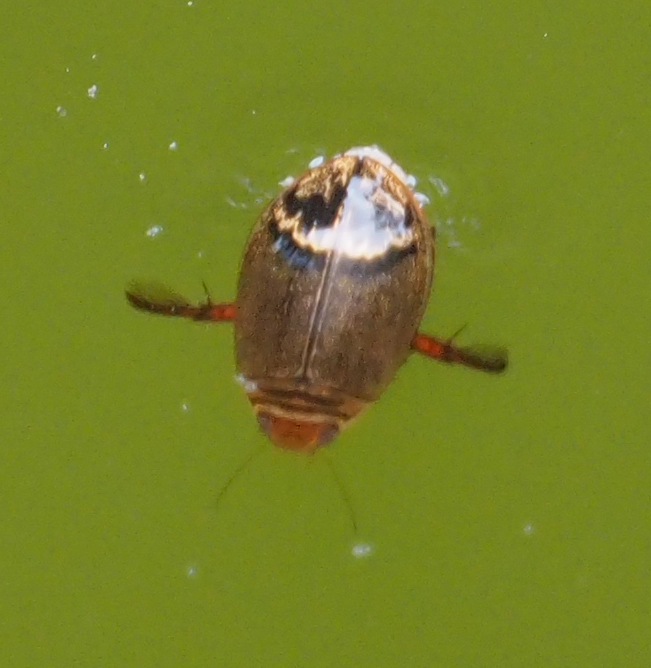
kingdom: Animalia
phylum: Arthropoda
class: Insecta
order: Coleoptera
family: Dytiscidae
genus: Acilius
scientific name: Acilius
